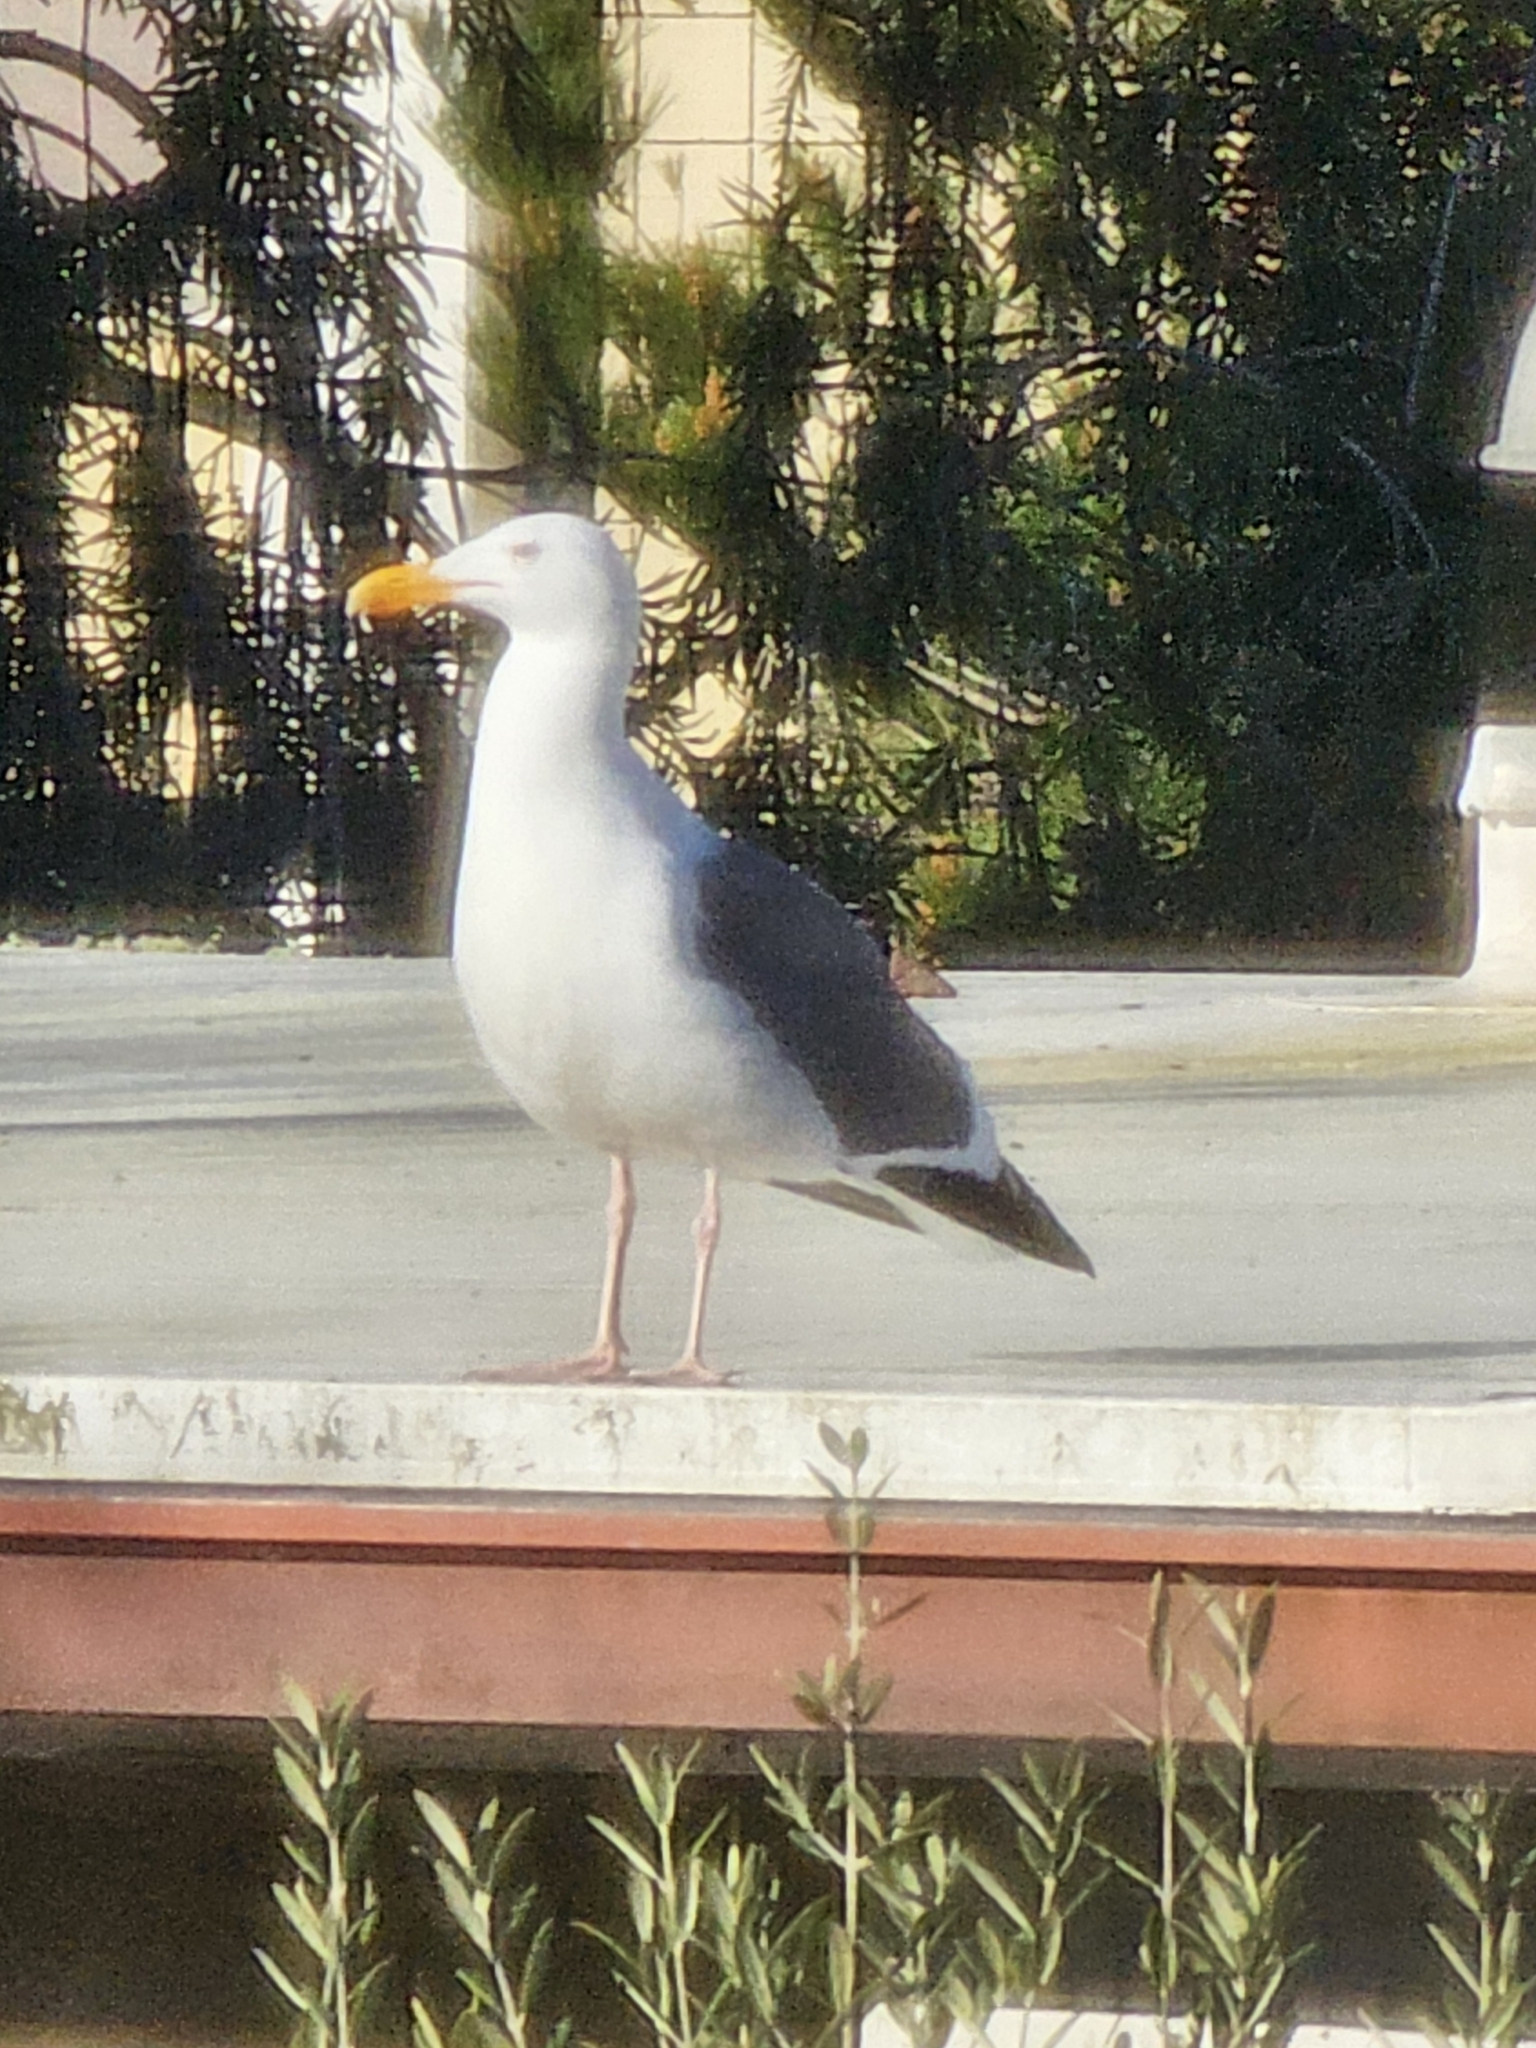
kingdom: Animalia
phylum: Chordata
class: Aves
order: Charadriiformes
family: Laridae
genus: Larus
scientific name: Larus occidentalis
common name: Western gull
